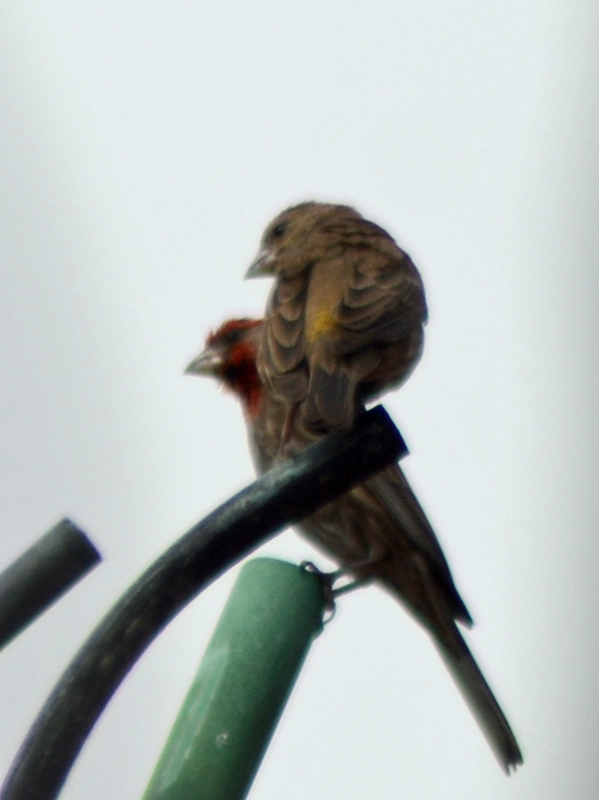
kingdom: Animalia
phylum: Chordata
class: Aves
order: Passeriformes
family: Fringillidae
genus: Haemorhous
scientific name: Haemorhous mexicanus
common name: House finch
